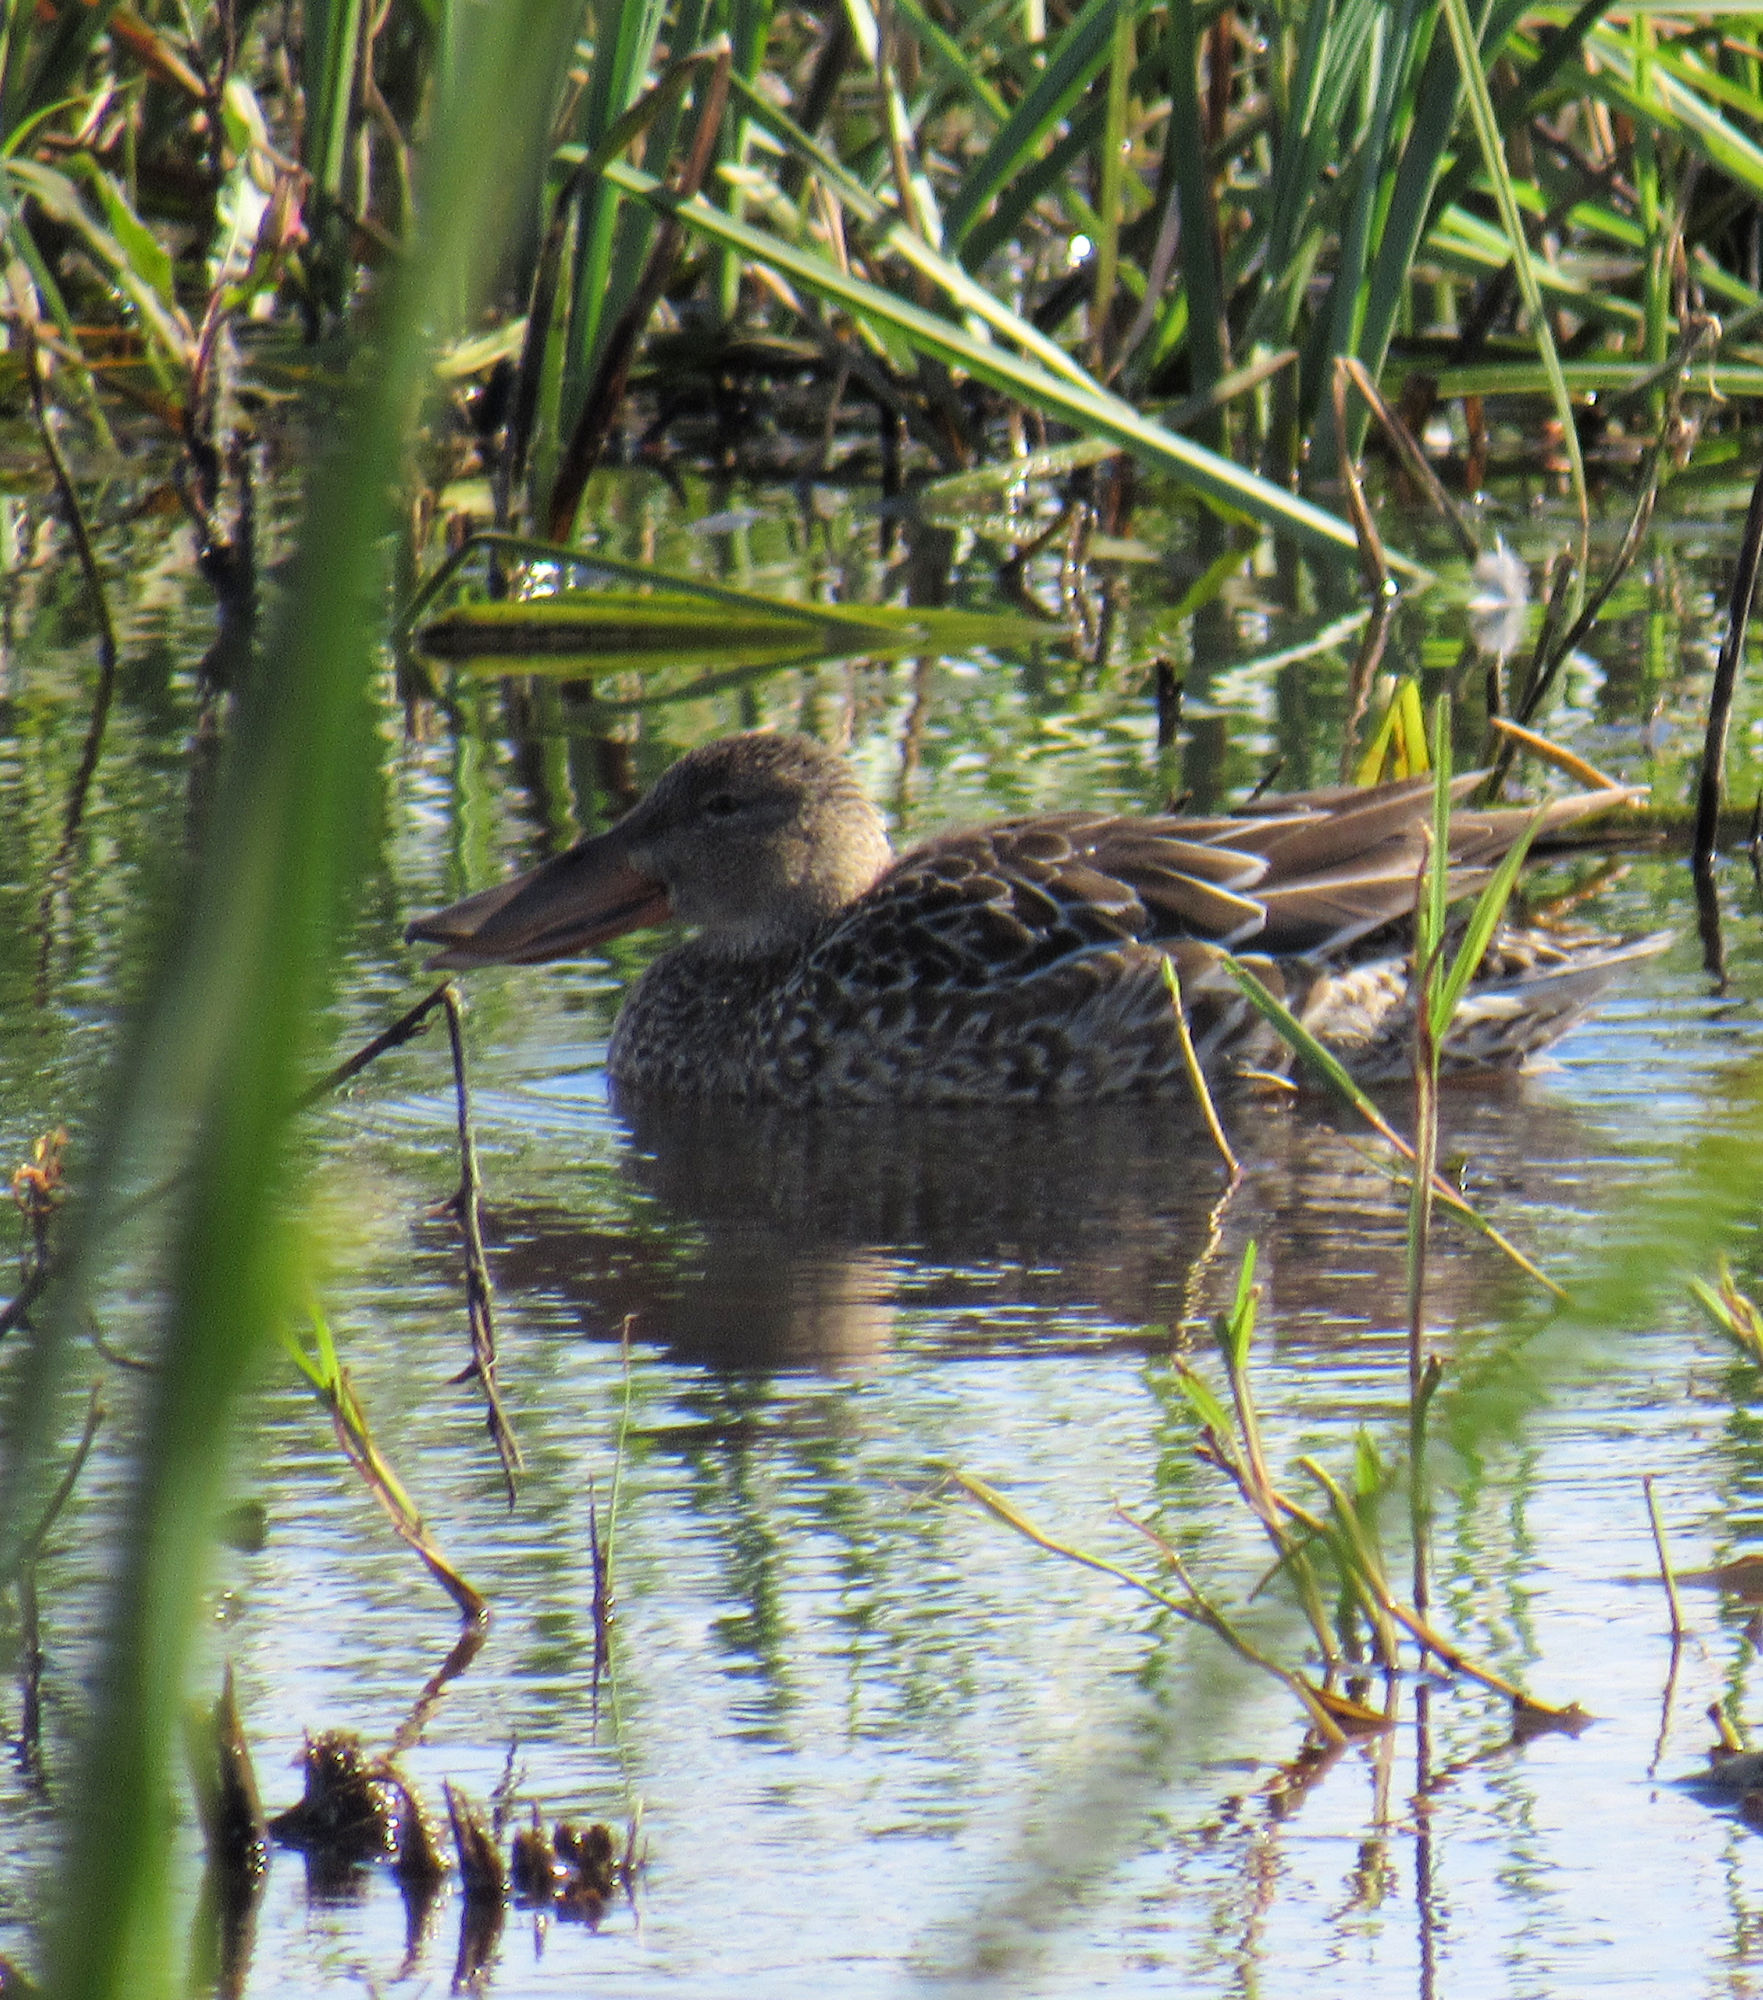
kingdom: Animalia
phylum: Chordata
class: Aves
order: Anseriformes
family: Anatidae
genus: Spatula
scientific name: Spatula clypeata
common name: Northern shoveler
